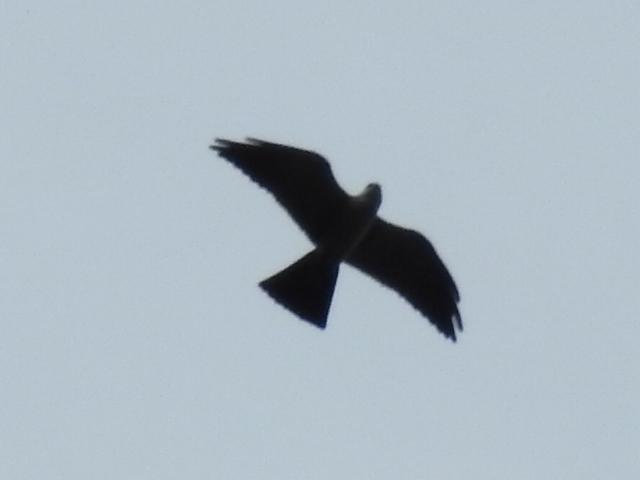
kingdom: Animalia
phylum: Chordata
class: Aves
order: Accipitriformes
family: Accipitridae
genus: Ictinia
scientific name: Ictinia mississippiensis
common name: Mississippi kite
